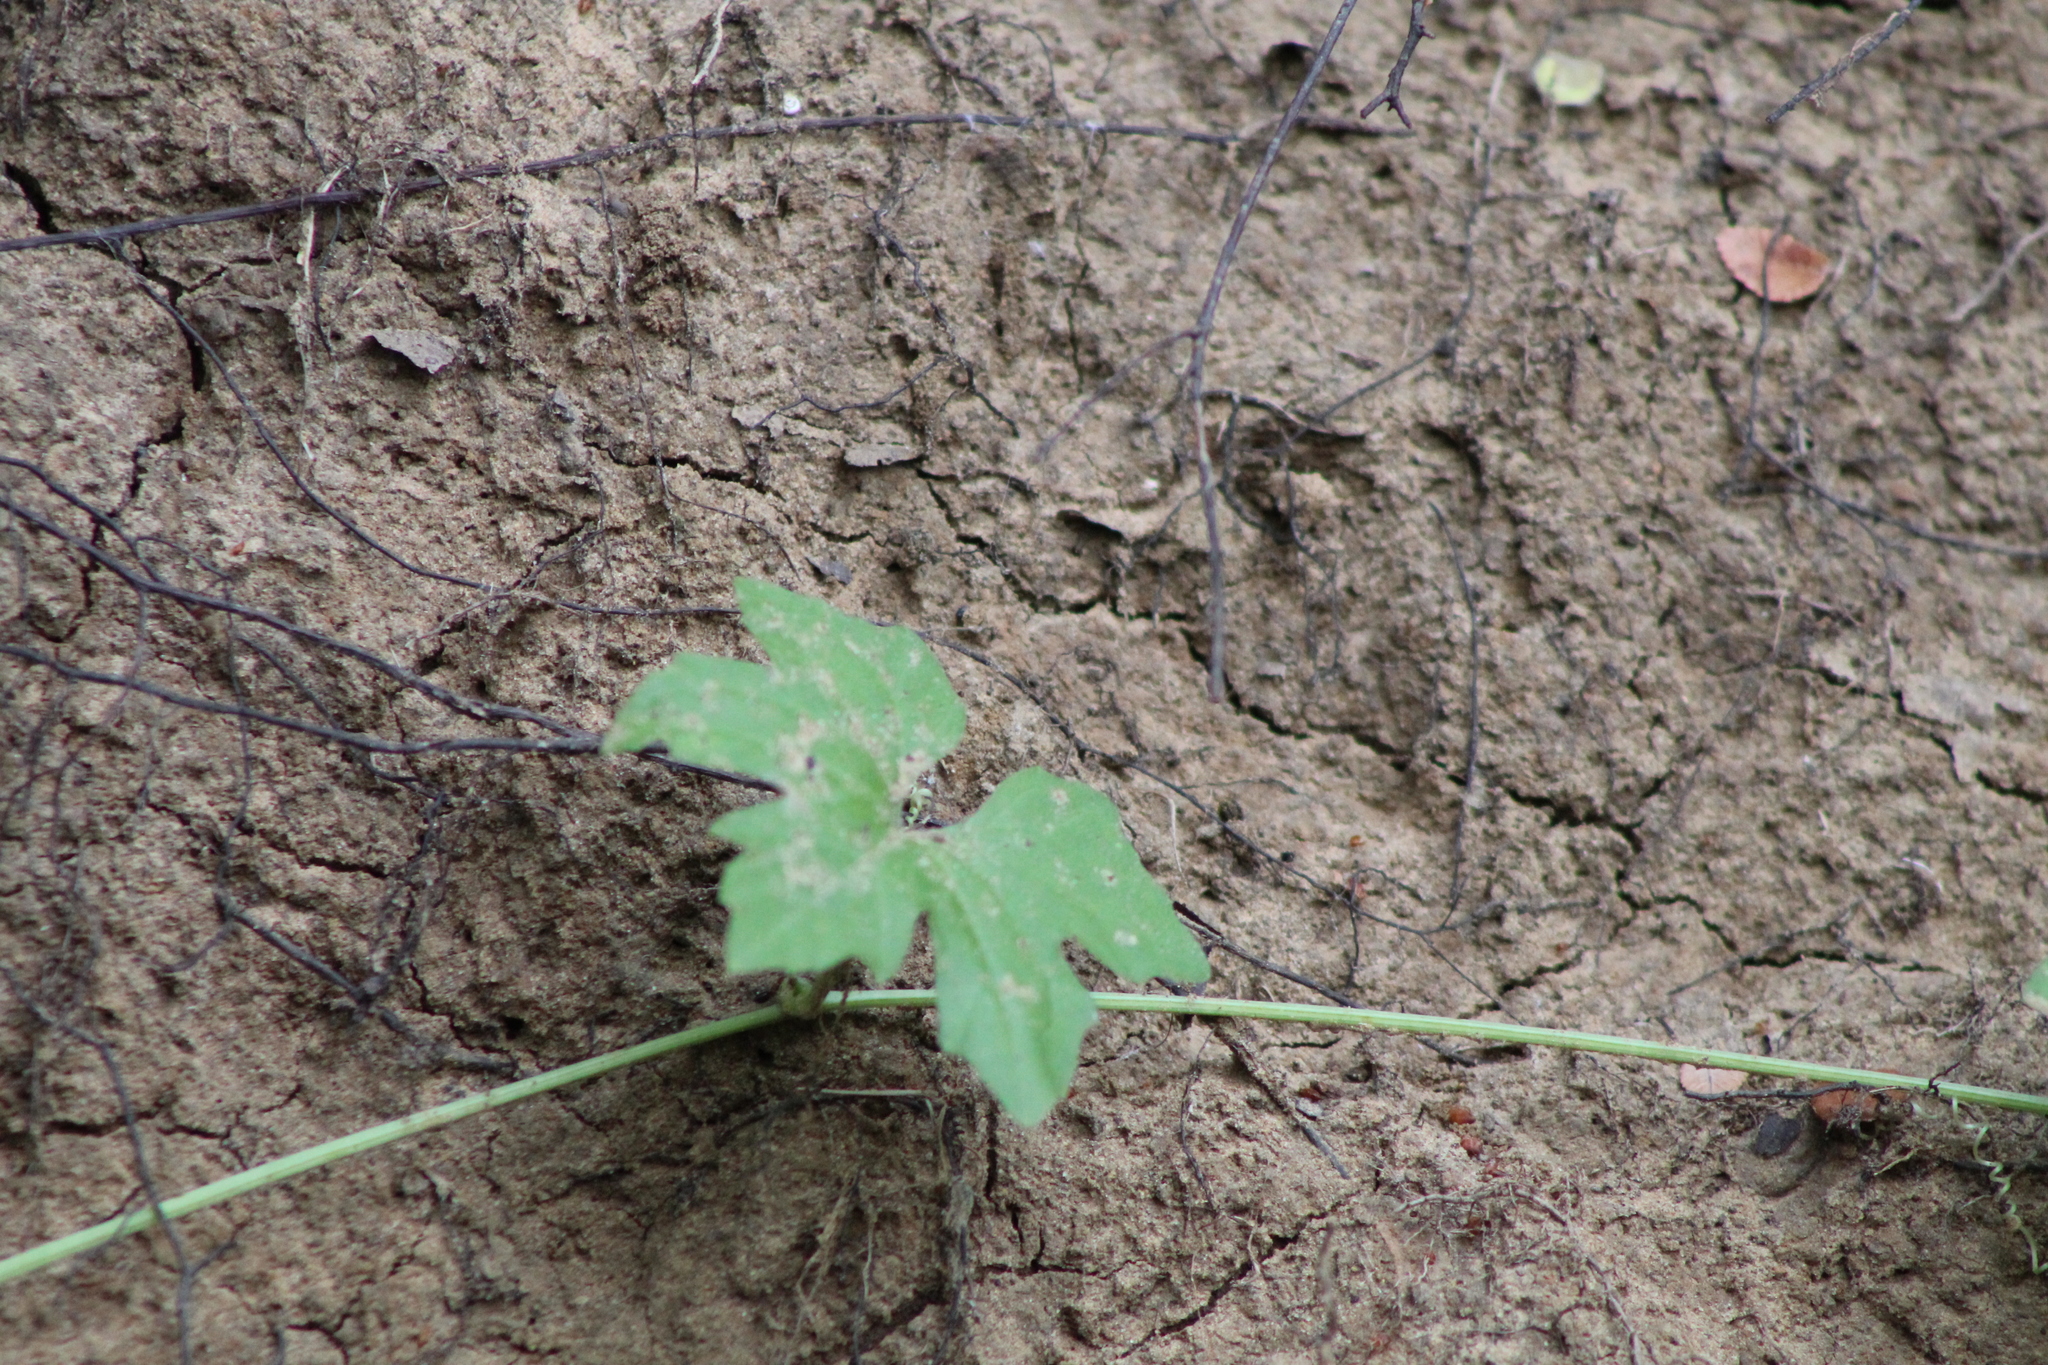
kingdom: Plantae
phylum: Tracheophyta
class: Magnoliopsida
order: Cucurbitales
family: Cucurbitaceae
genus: Melothria
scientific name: Melothria pendula
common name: Creeping-cucumber
